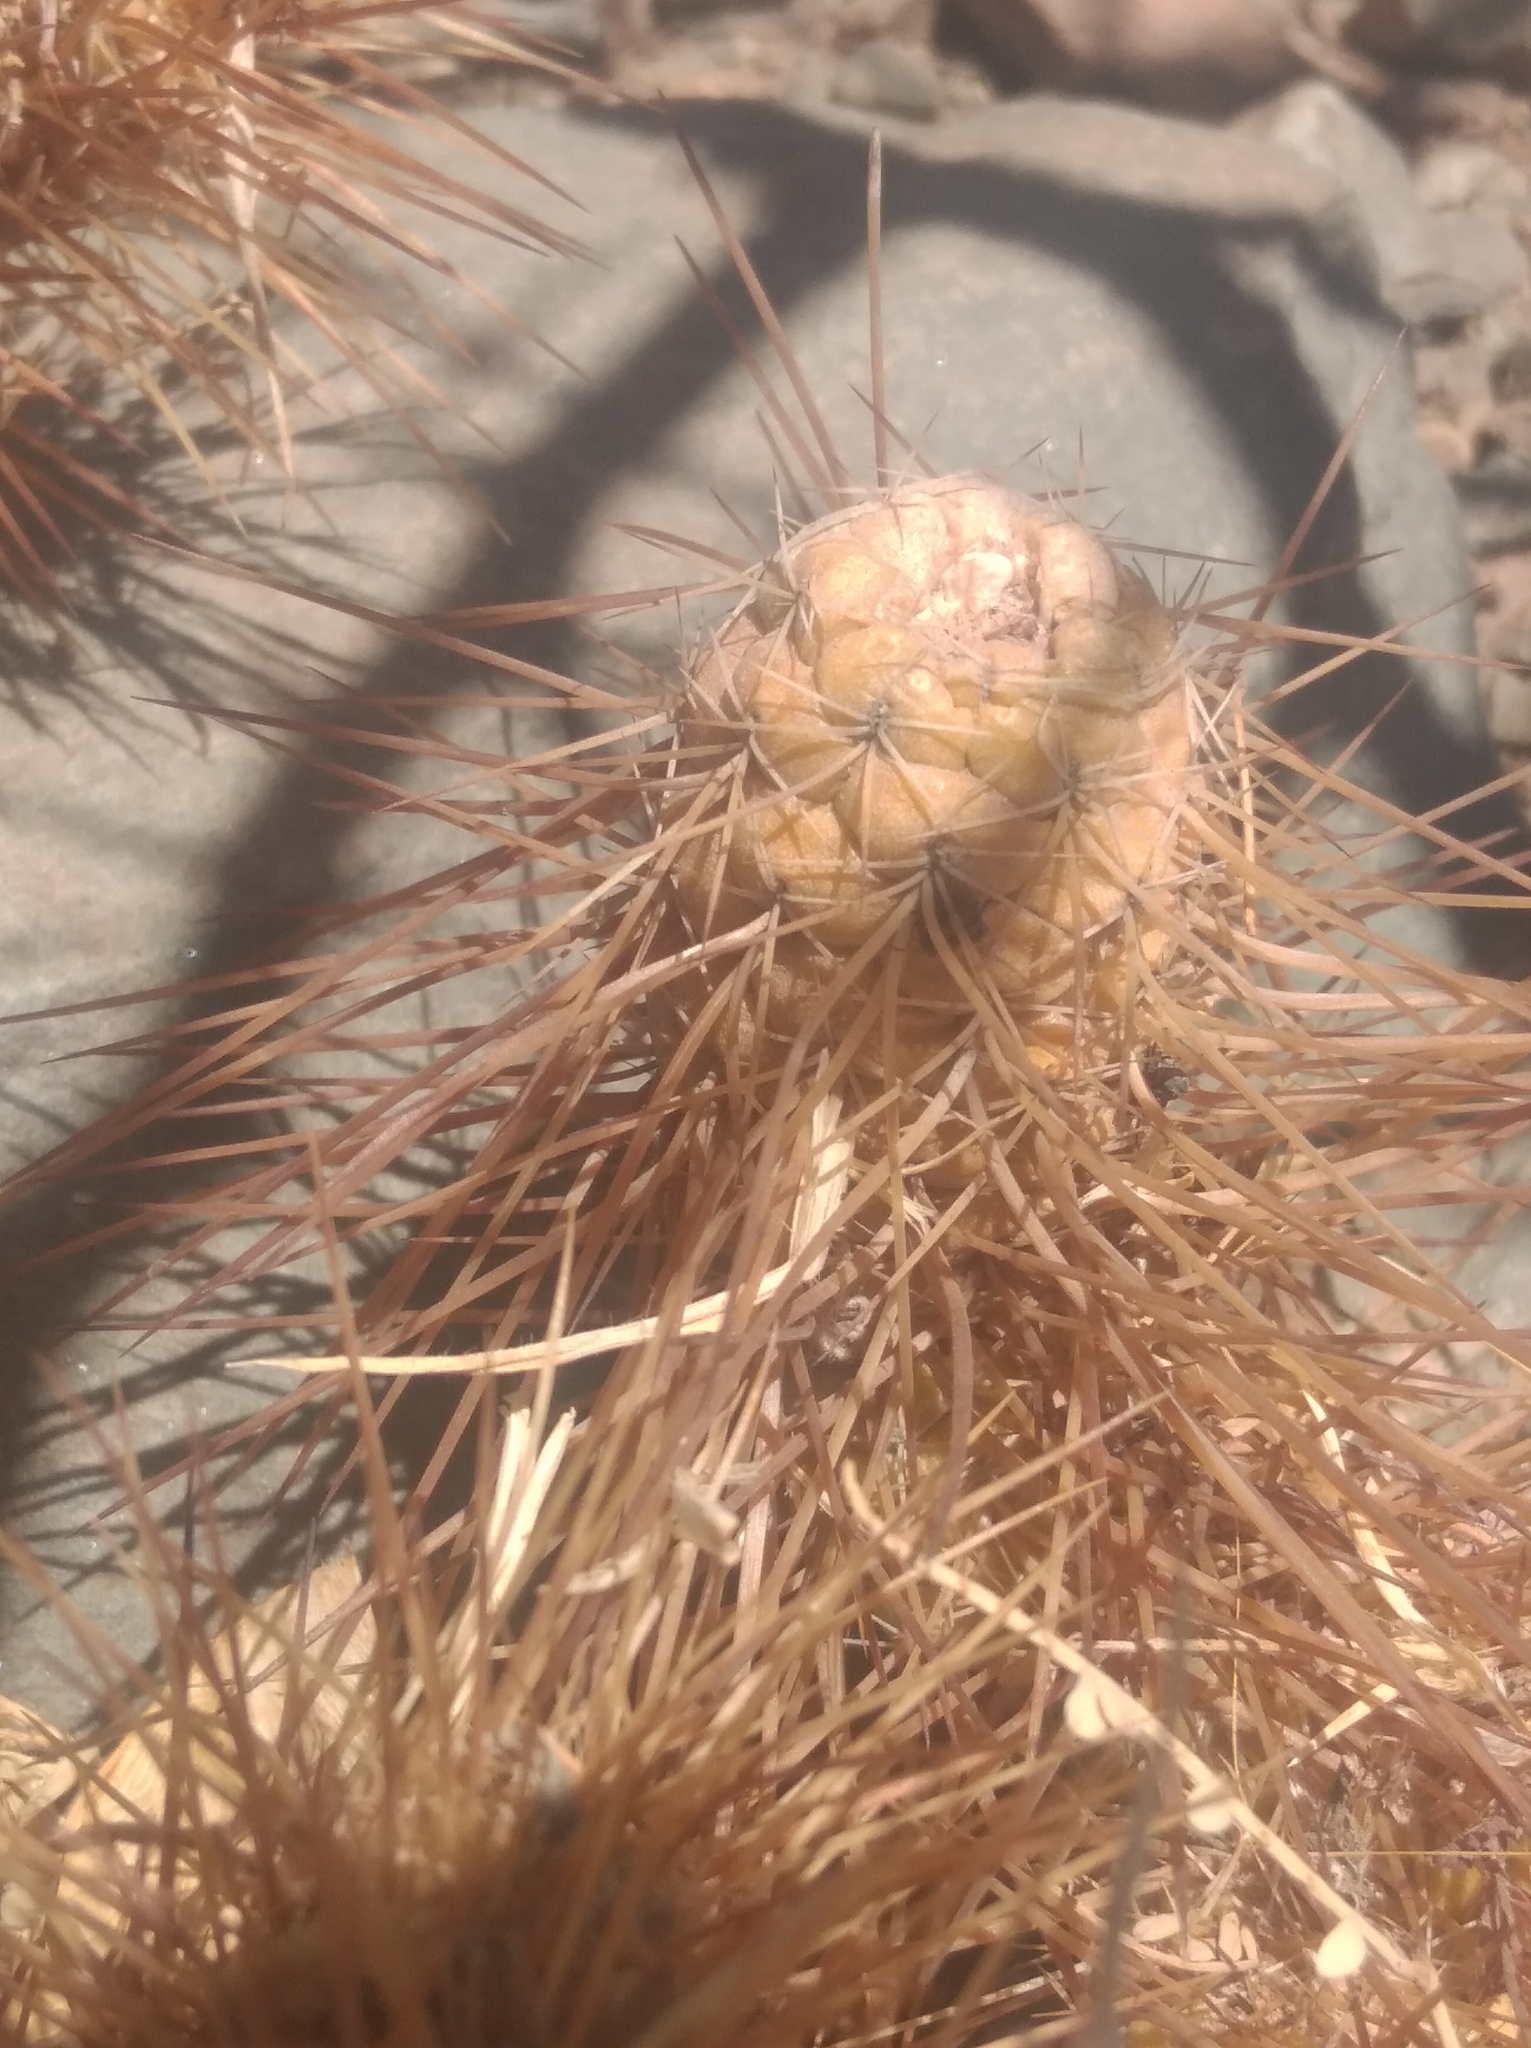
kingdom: Plantae
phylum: Tracheophyta
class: Magnoliopsida
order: Caryophyllales
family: Cactaceae
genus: Tephrocactus
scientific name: Tephrocactus weberi
